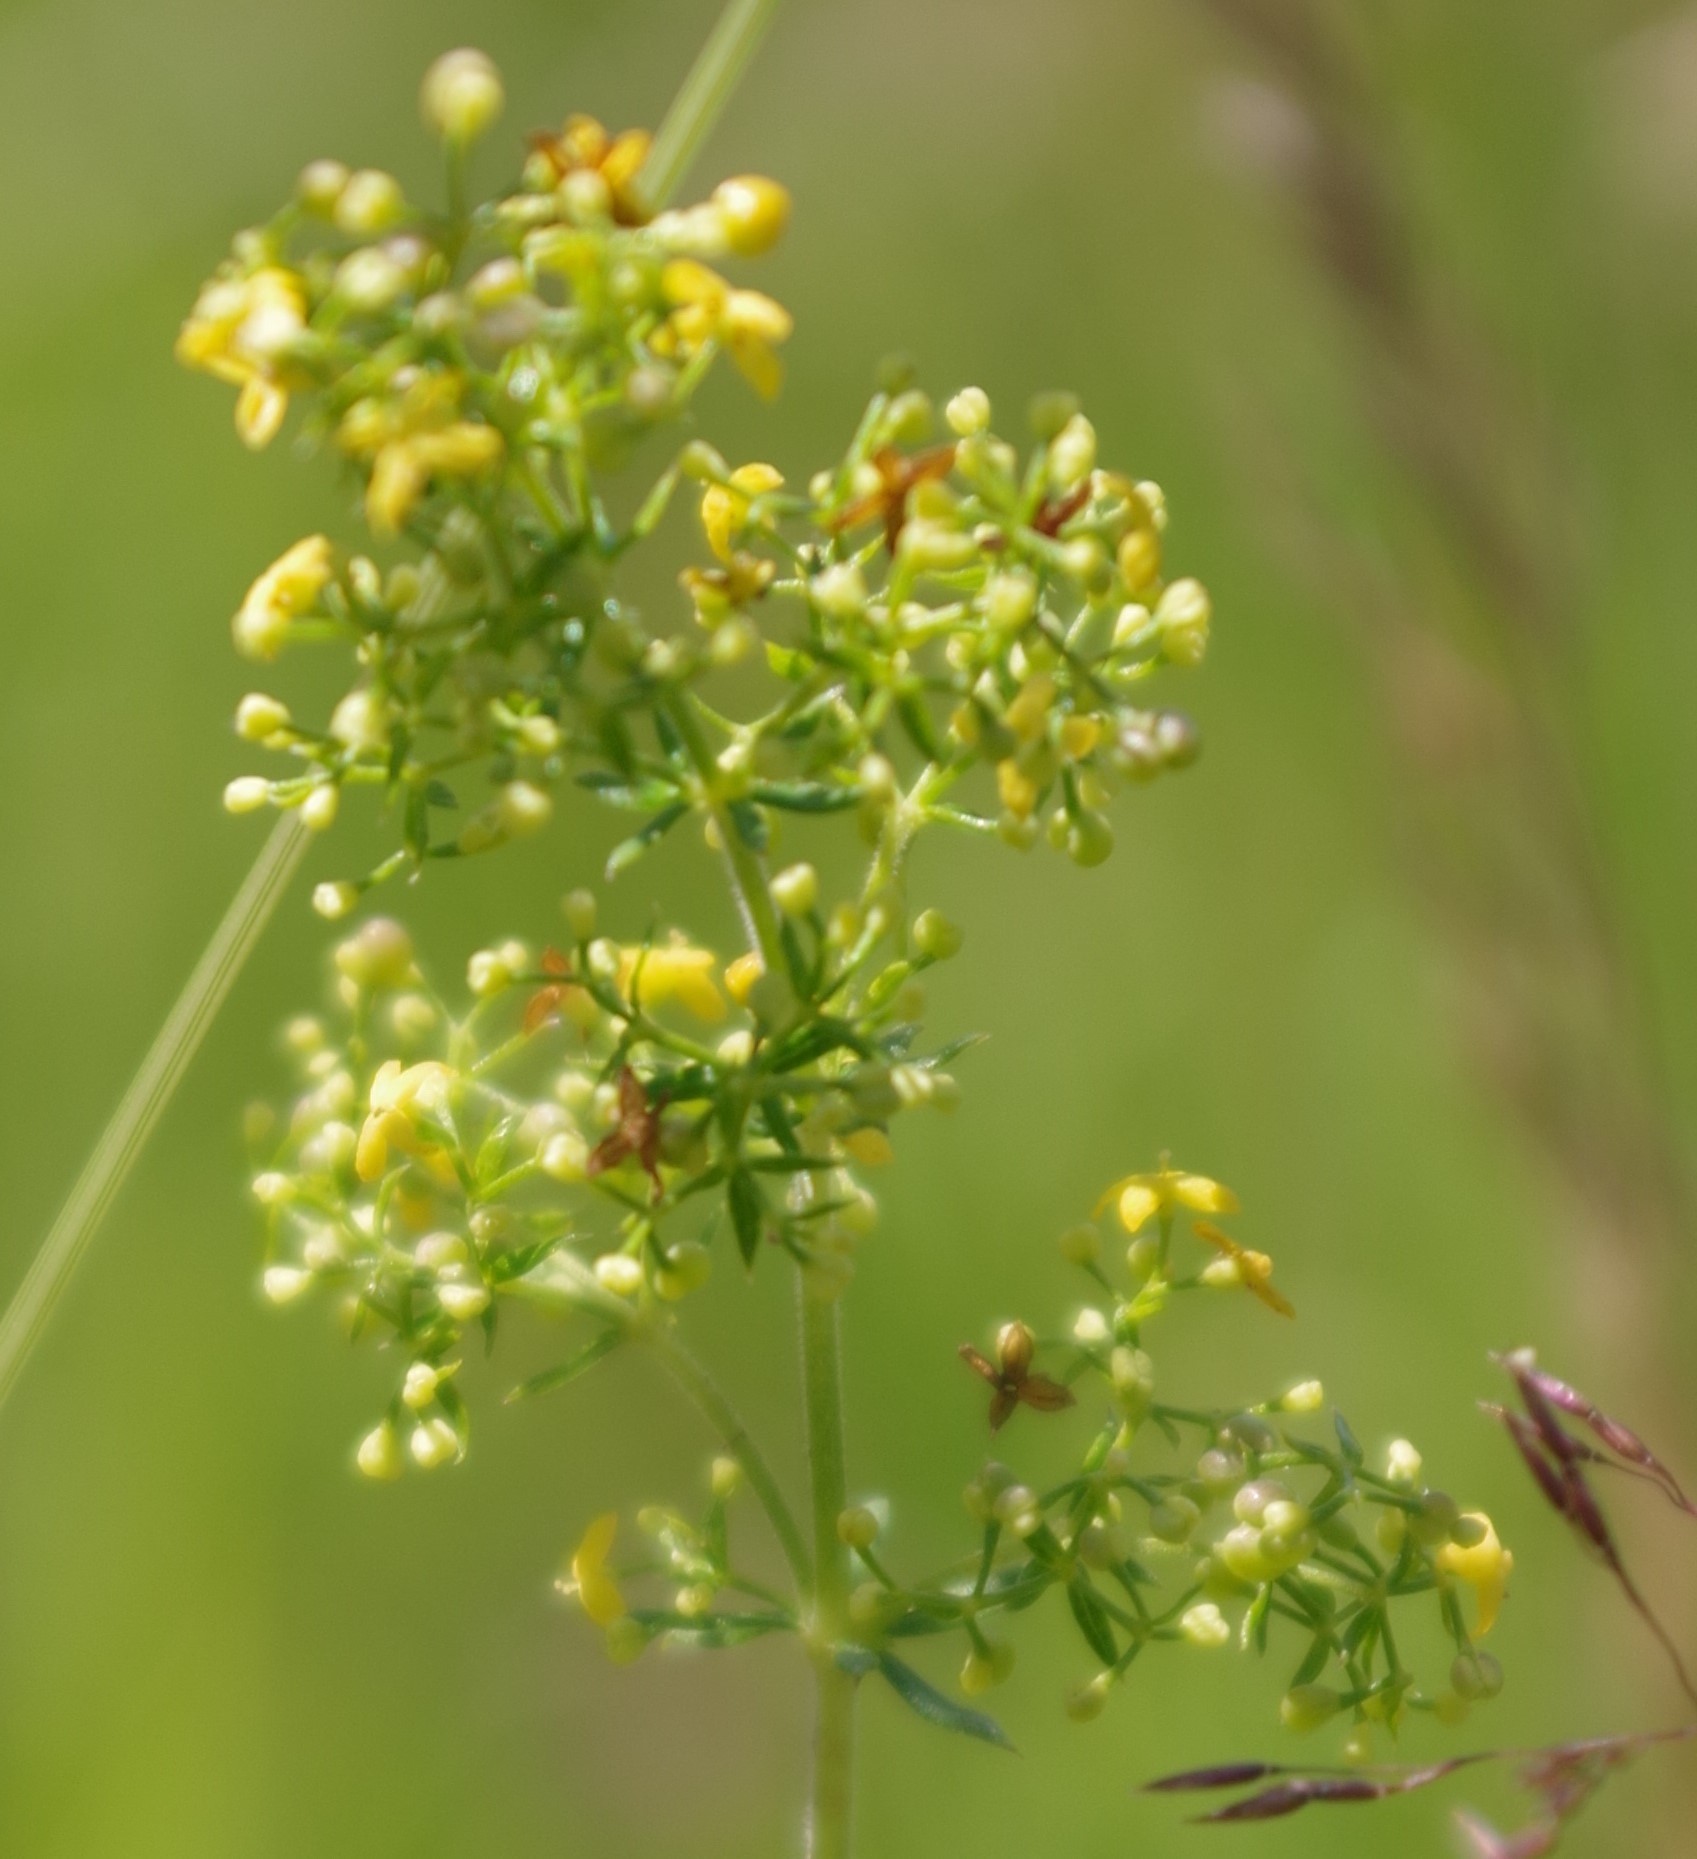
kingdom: Plantae
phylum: Tracheophyta
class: Magnoliopsida
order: Gentianales
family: Rubiaceae
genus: Galium
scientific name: Galium verum
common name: Lady's bedstraw
